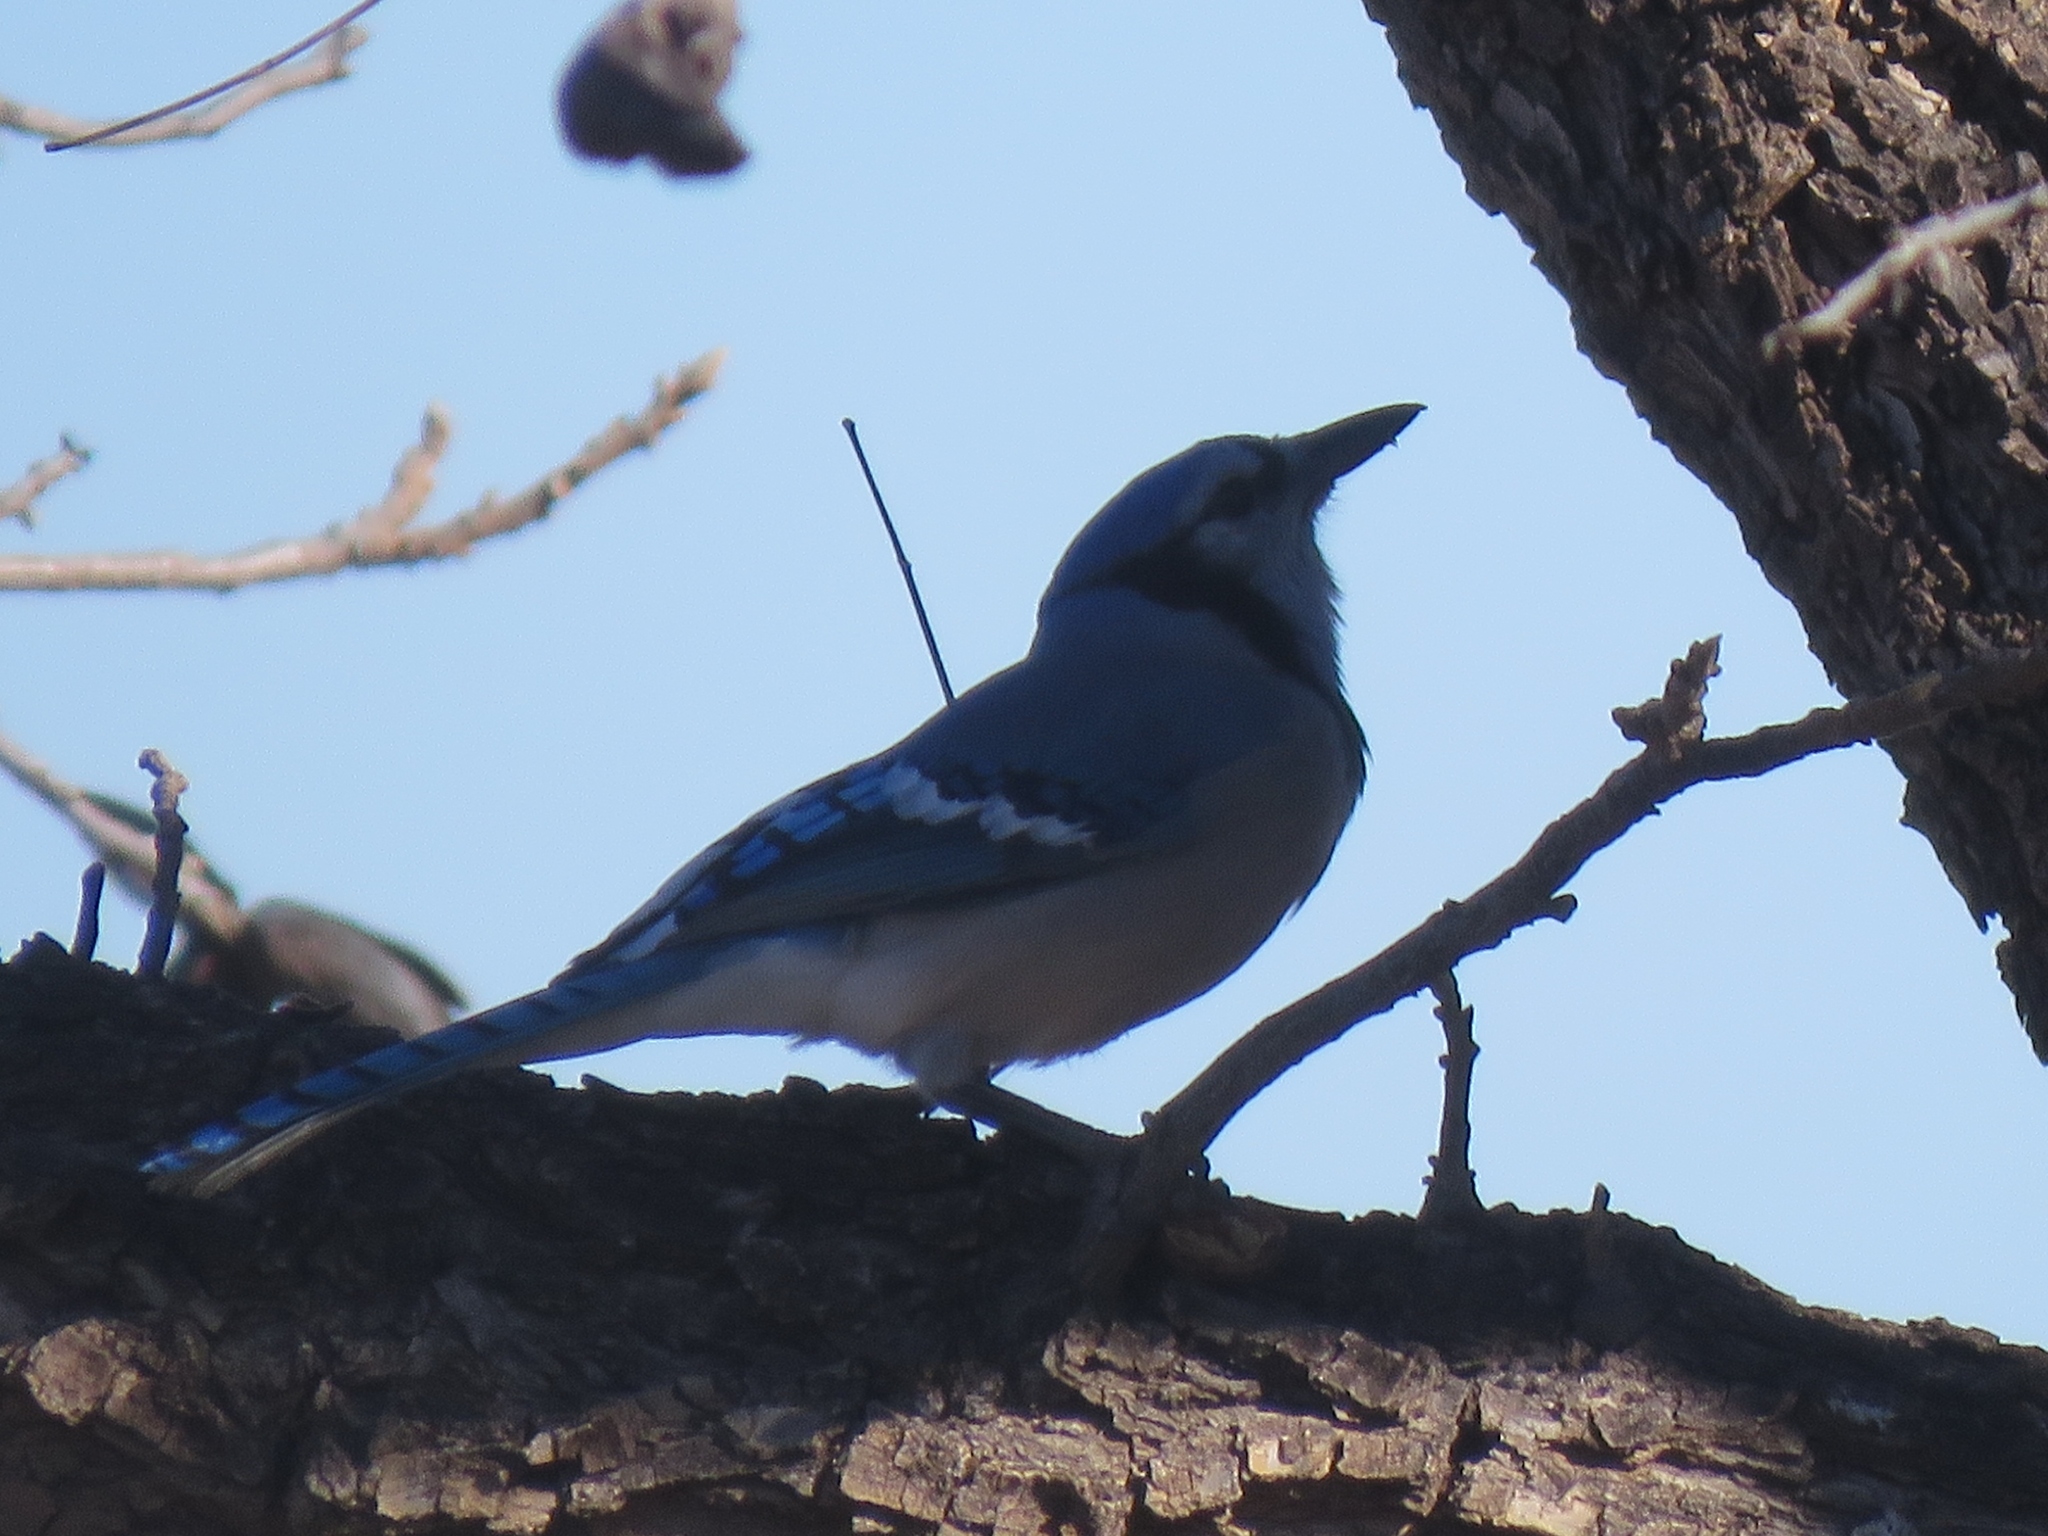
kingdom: Animalia
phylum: Chordata
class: Aves
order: Passeriformes
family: Corvidae
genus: Cyanocitta
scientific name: Cyanocitta cristata
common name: Blue jay
